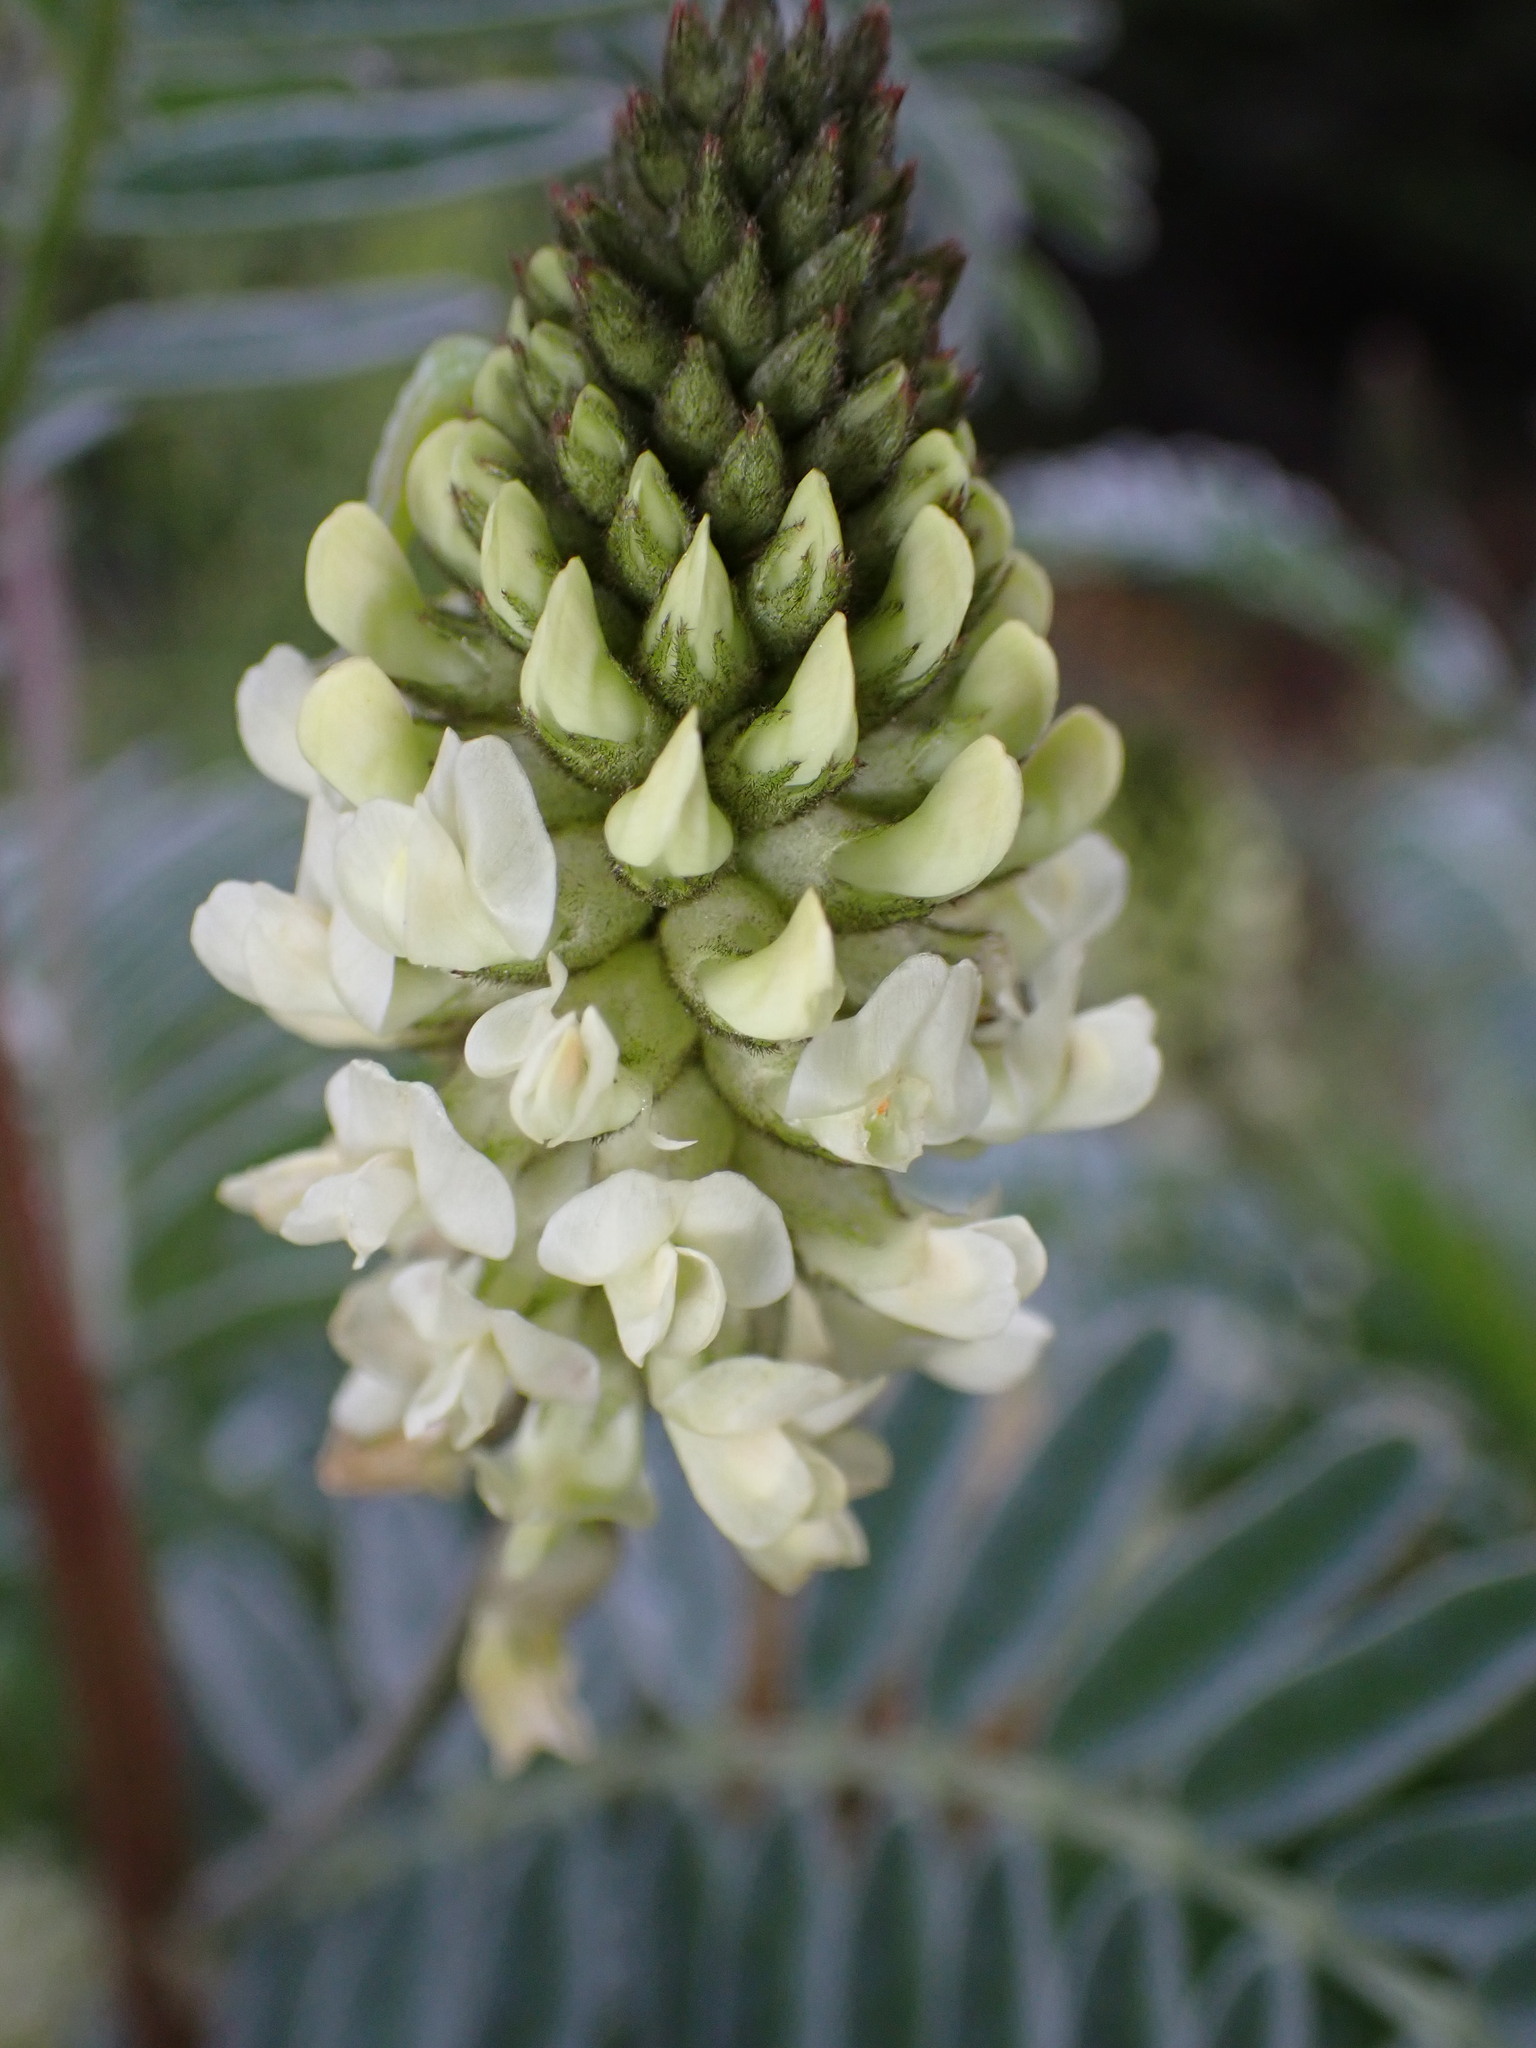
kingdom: Plantae
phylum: Tracheophyta
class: Magnoliopsida
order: Fabales
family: Fabaceae
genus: Astragalus
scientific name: Astragalus pycnostachyus
